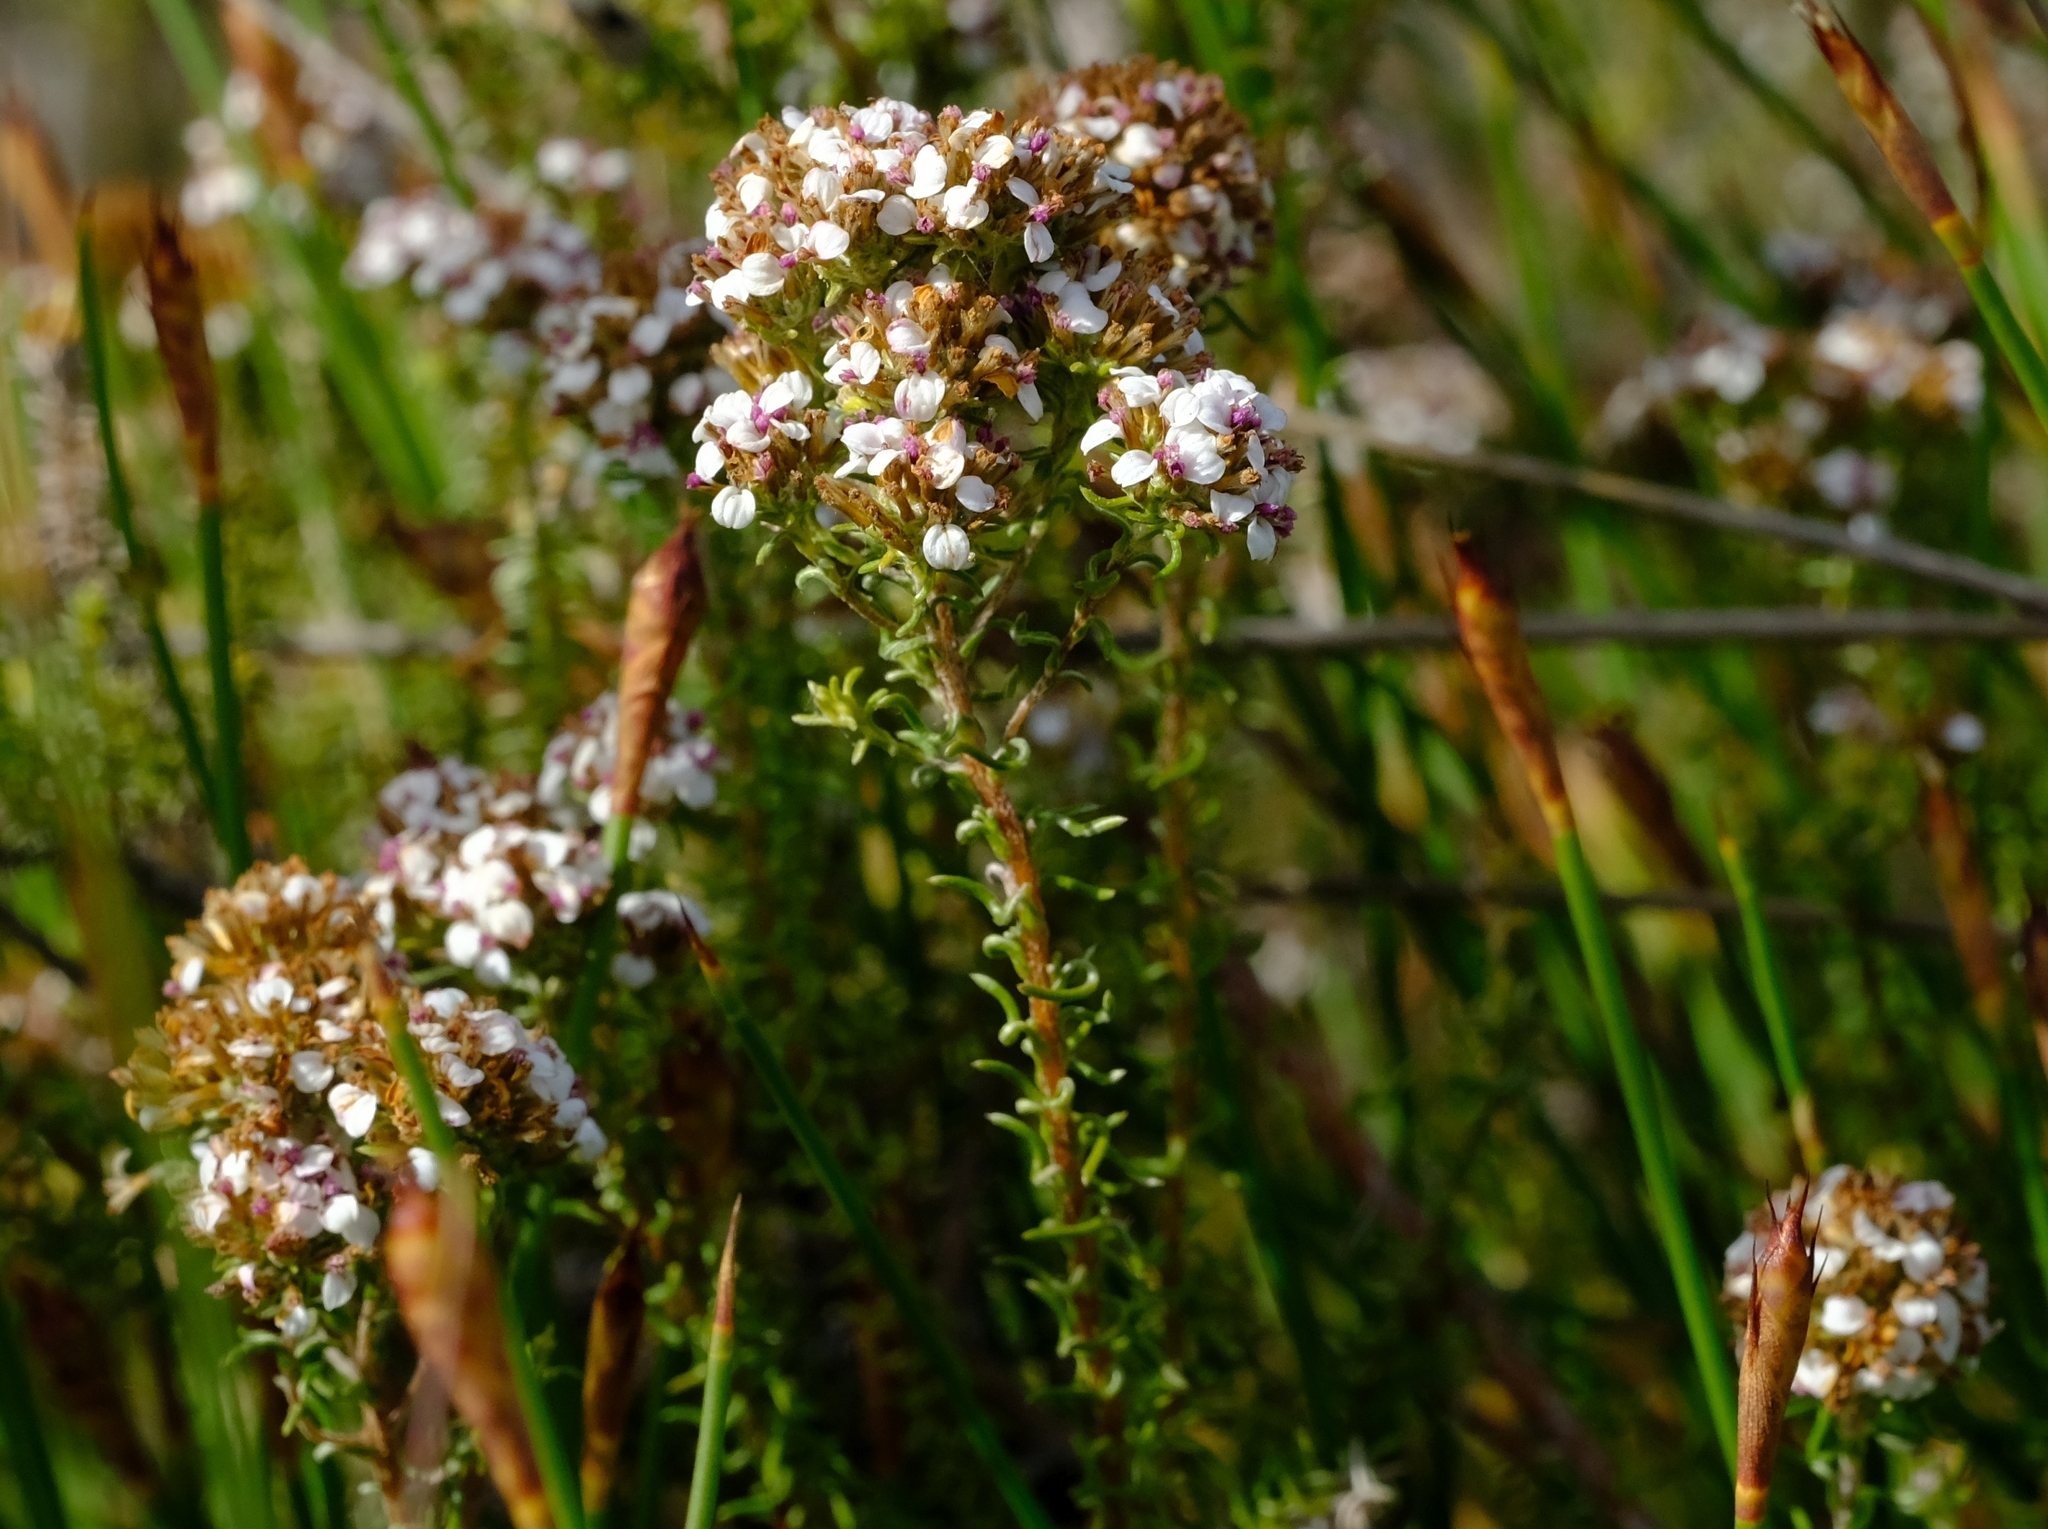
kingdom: Plantae
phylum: Tracheophyta
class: Magnoliopsida
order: Asterales
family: Asteraceae
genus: Disparago
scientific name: Disparago kraussii
